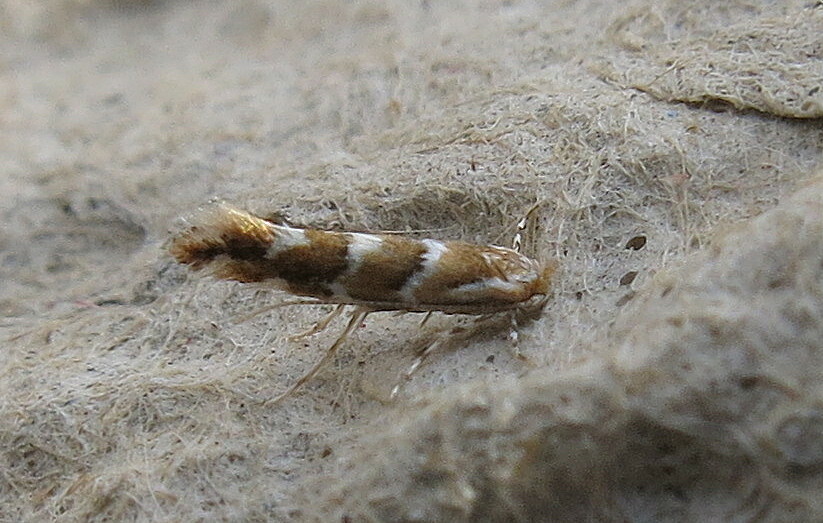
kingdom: Animalia
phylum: Arthropoda
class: Insecta
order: Lepidoptera
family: Gracillariidae
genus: Cameraria
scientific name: Cameraria ohridella
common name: Horse-chestnut leaf-miner
